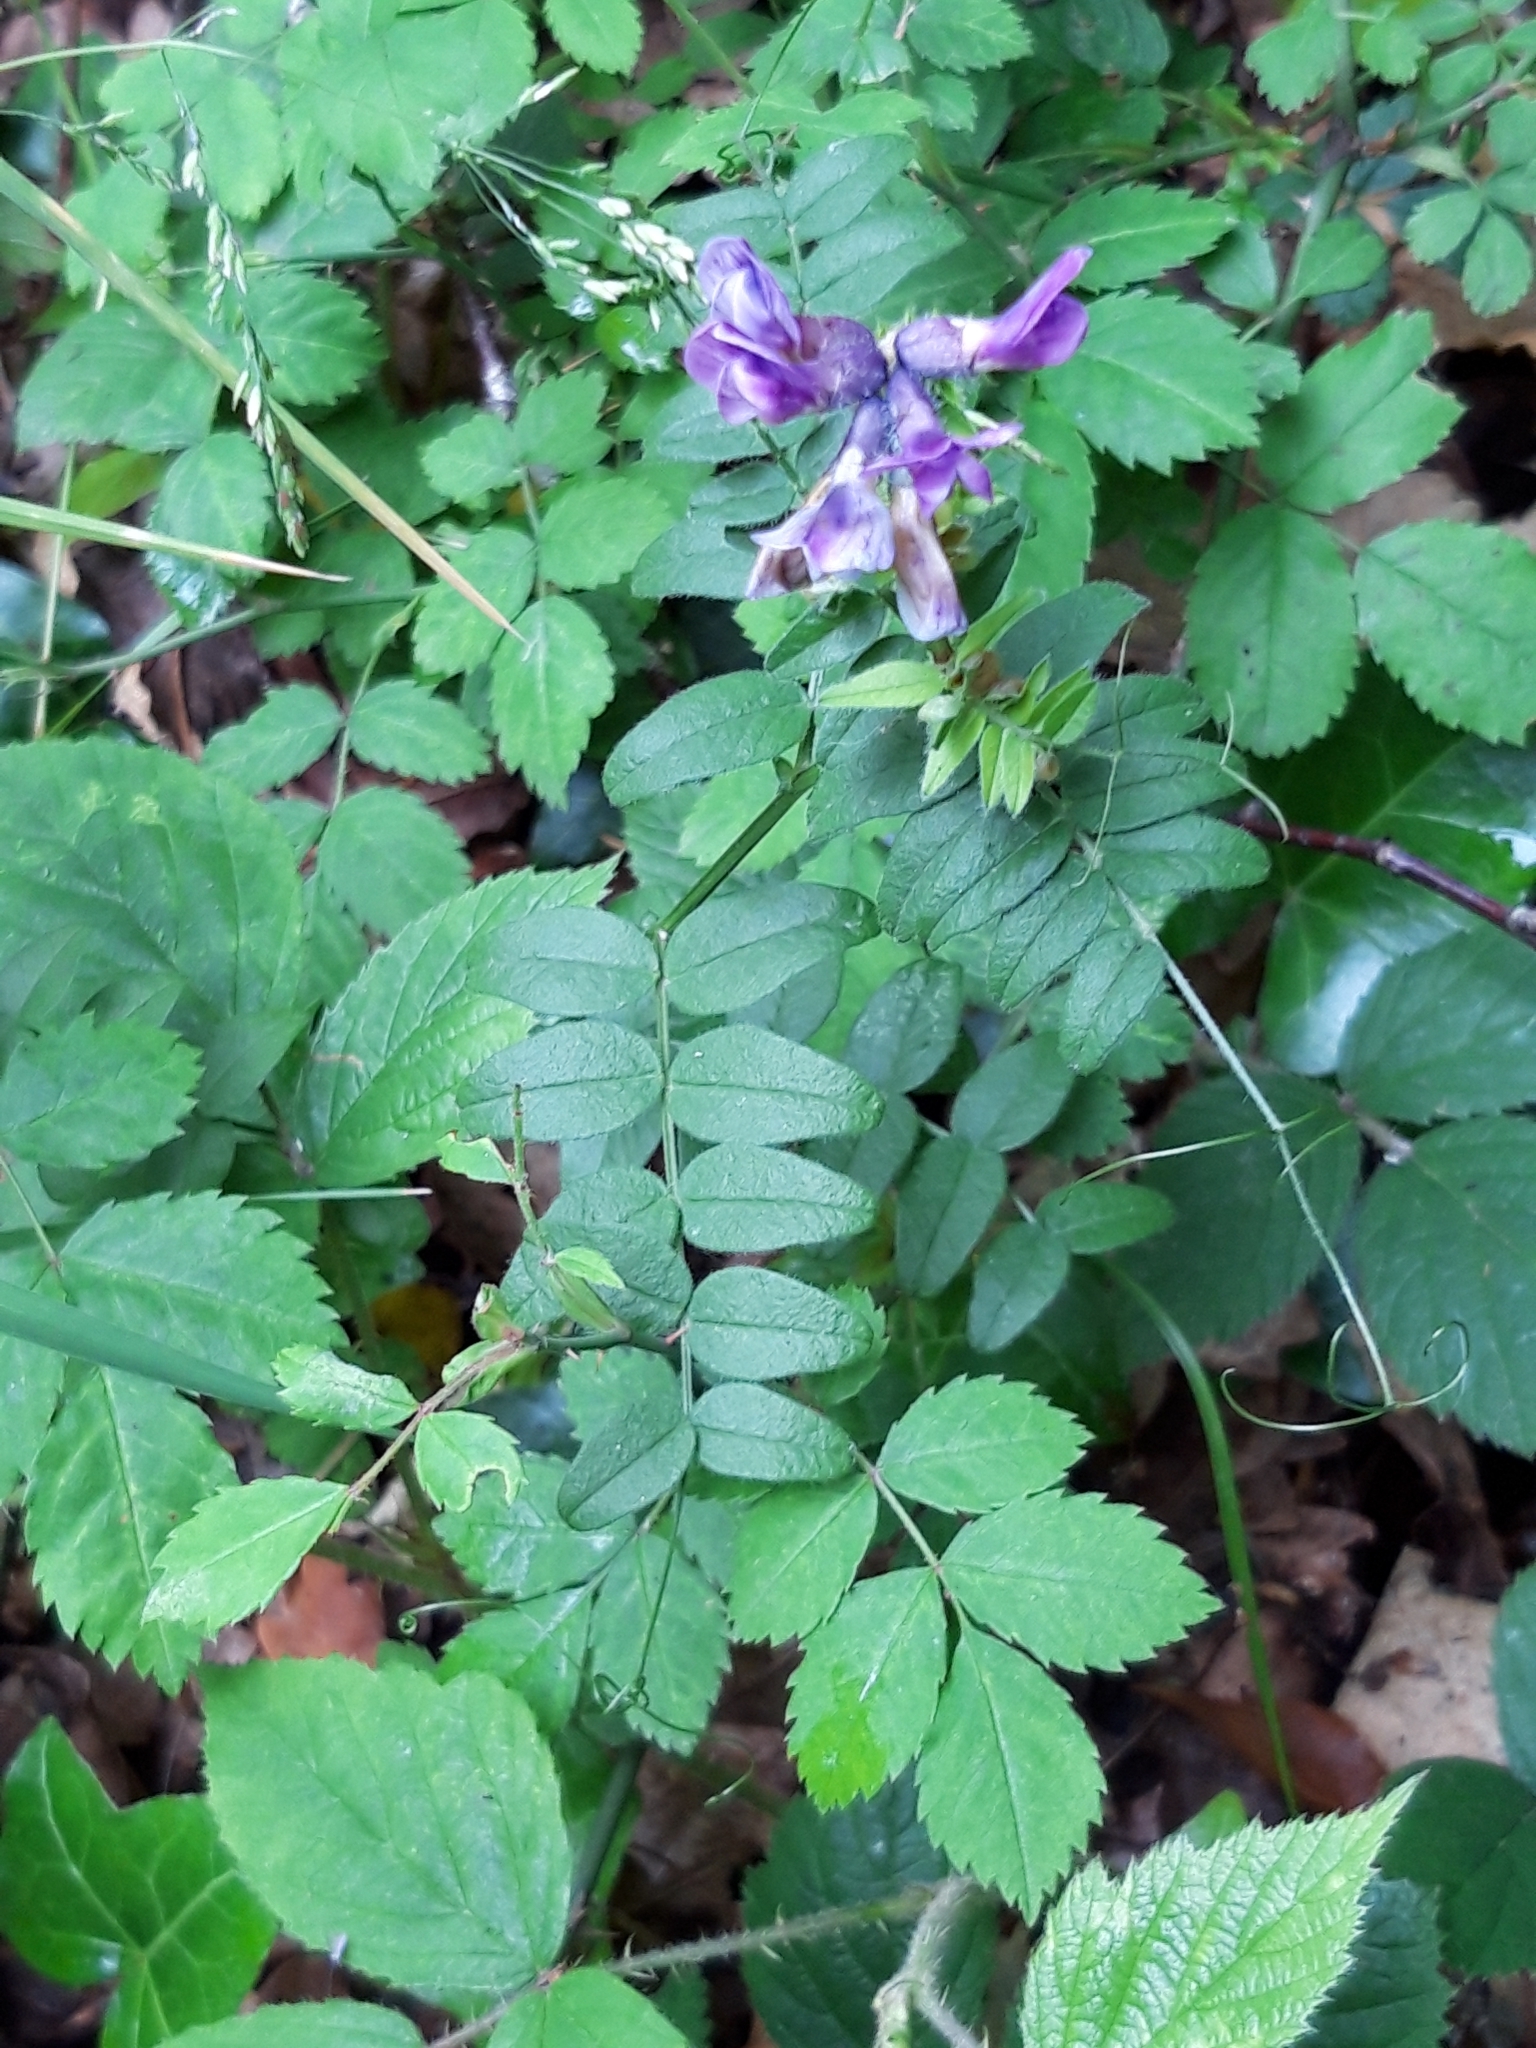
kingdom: Plantae
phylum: Tracheophyta
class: Magnoliopsida
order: Fabales
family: Fabaceae
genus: Vicia
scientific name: Vicia sepium
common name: Bush vetch
